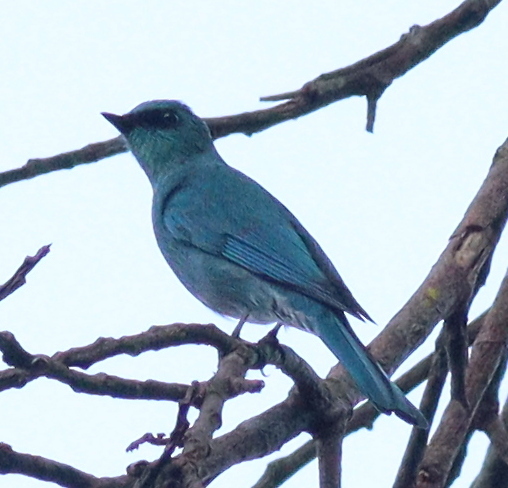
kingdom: Animalia
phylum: Chordata
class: Aves
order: Passeriformes
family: Muscicapidae
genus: Eumyias
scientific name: Eumyias thalassinus
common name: Verditer flycatcher
